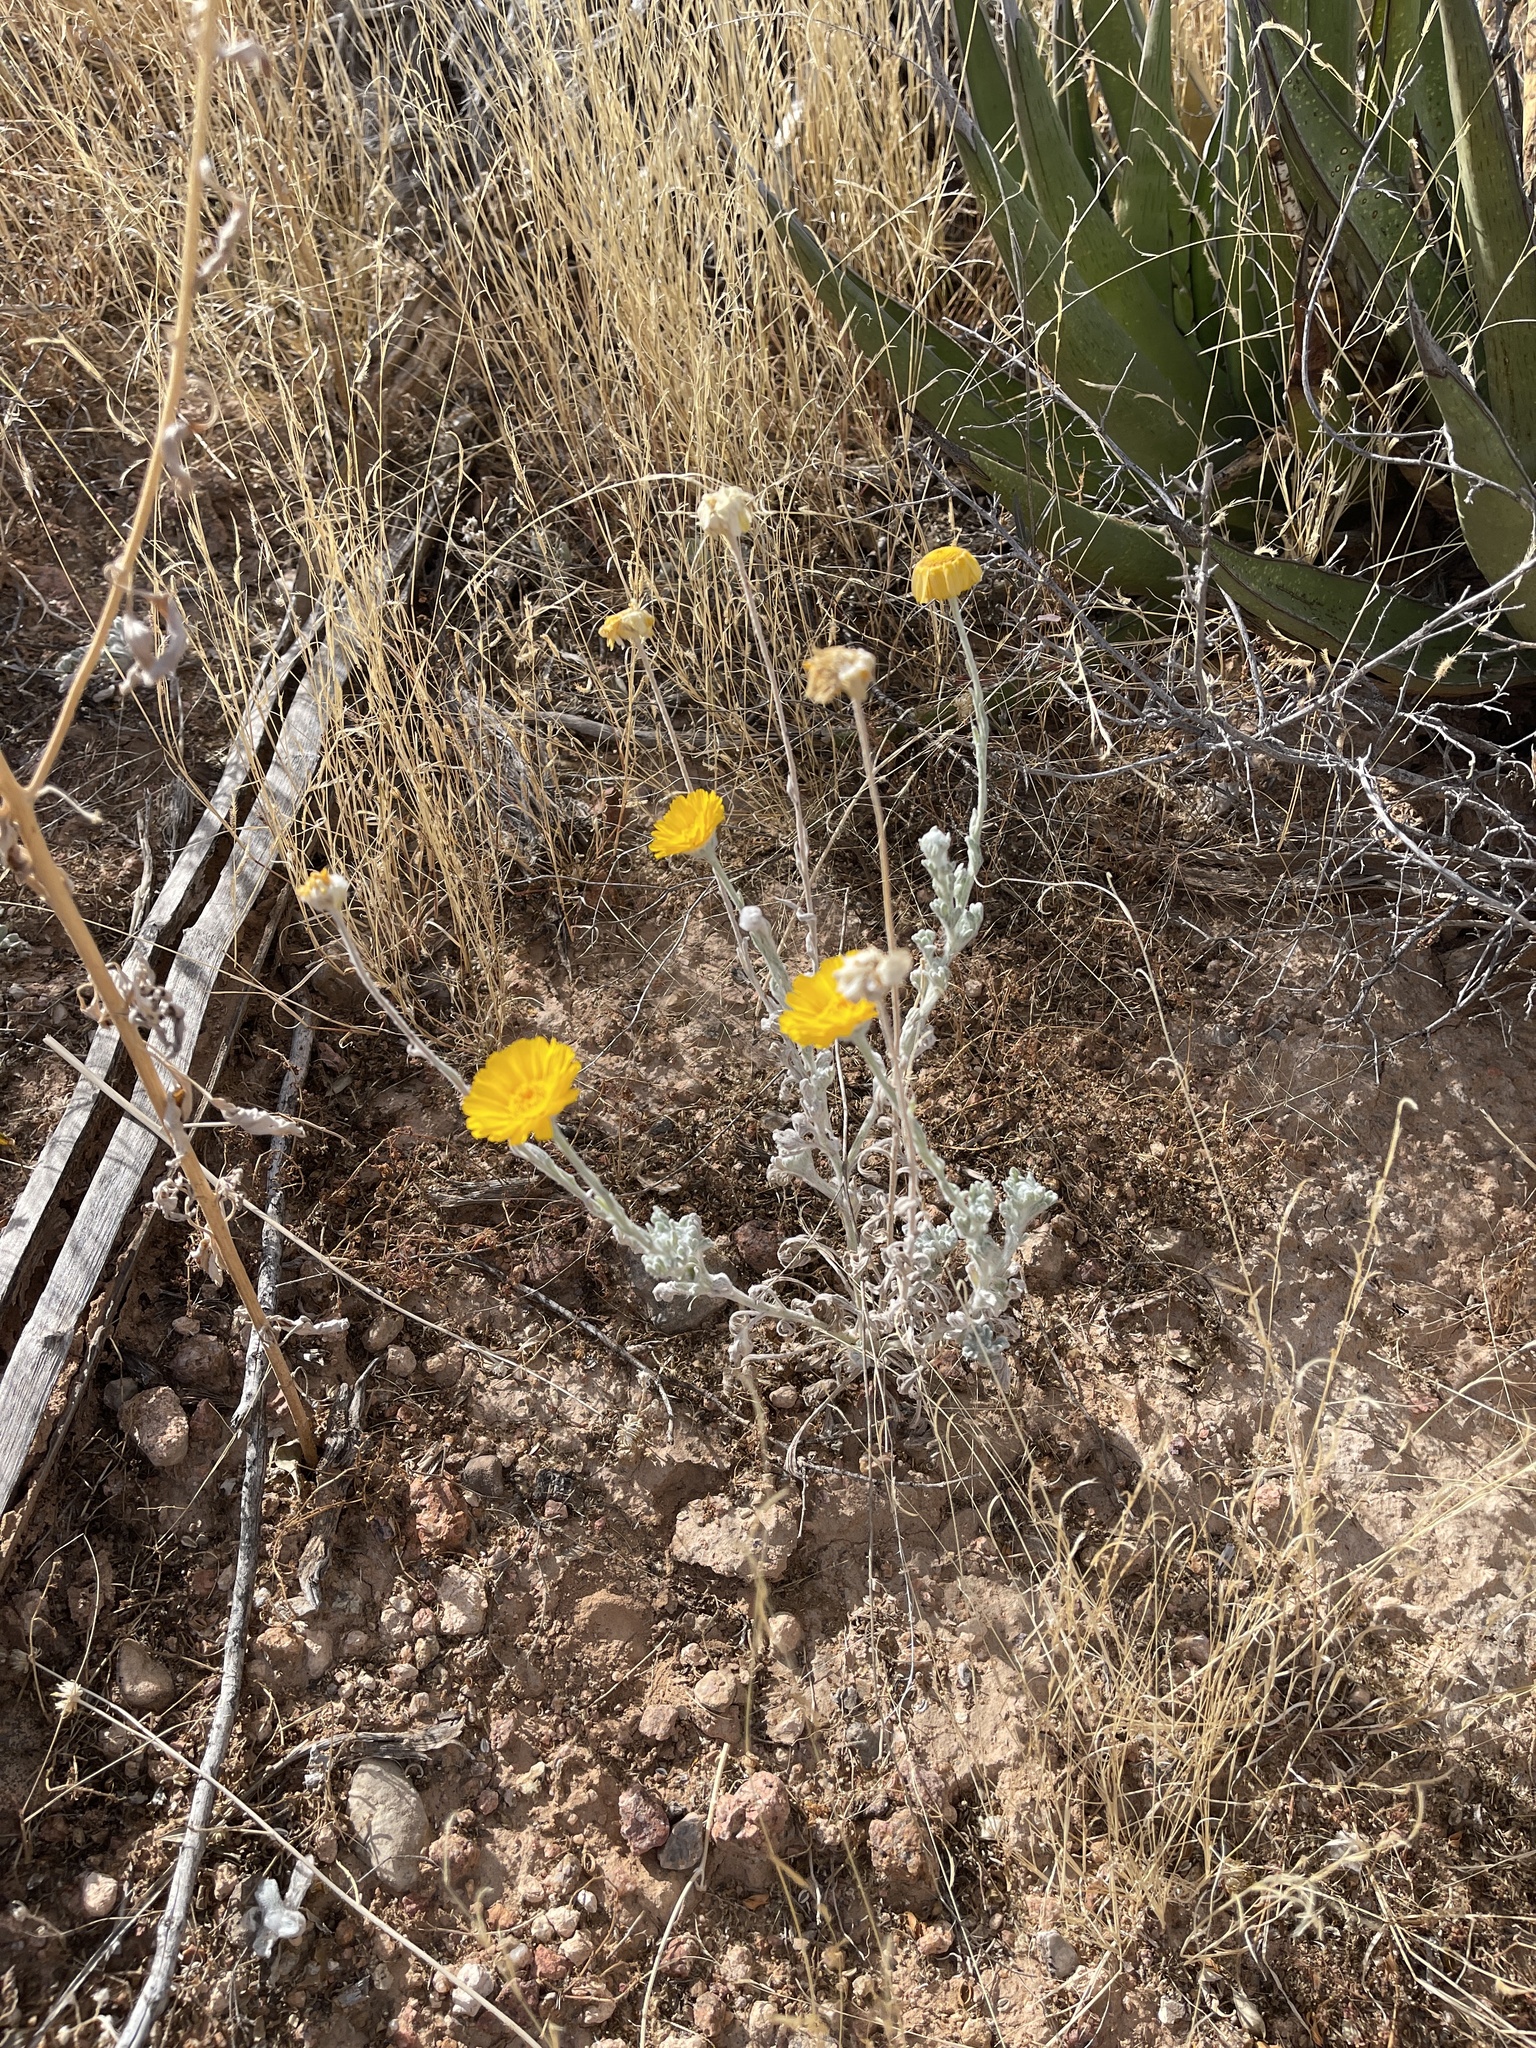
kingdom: Plantae
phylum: Tracheophyta
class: Magnoliopsida
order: Asterales
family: Asteraceae
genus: Baileya
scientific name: Baileya multiradiata
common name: Desert-marigold
